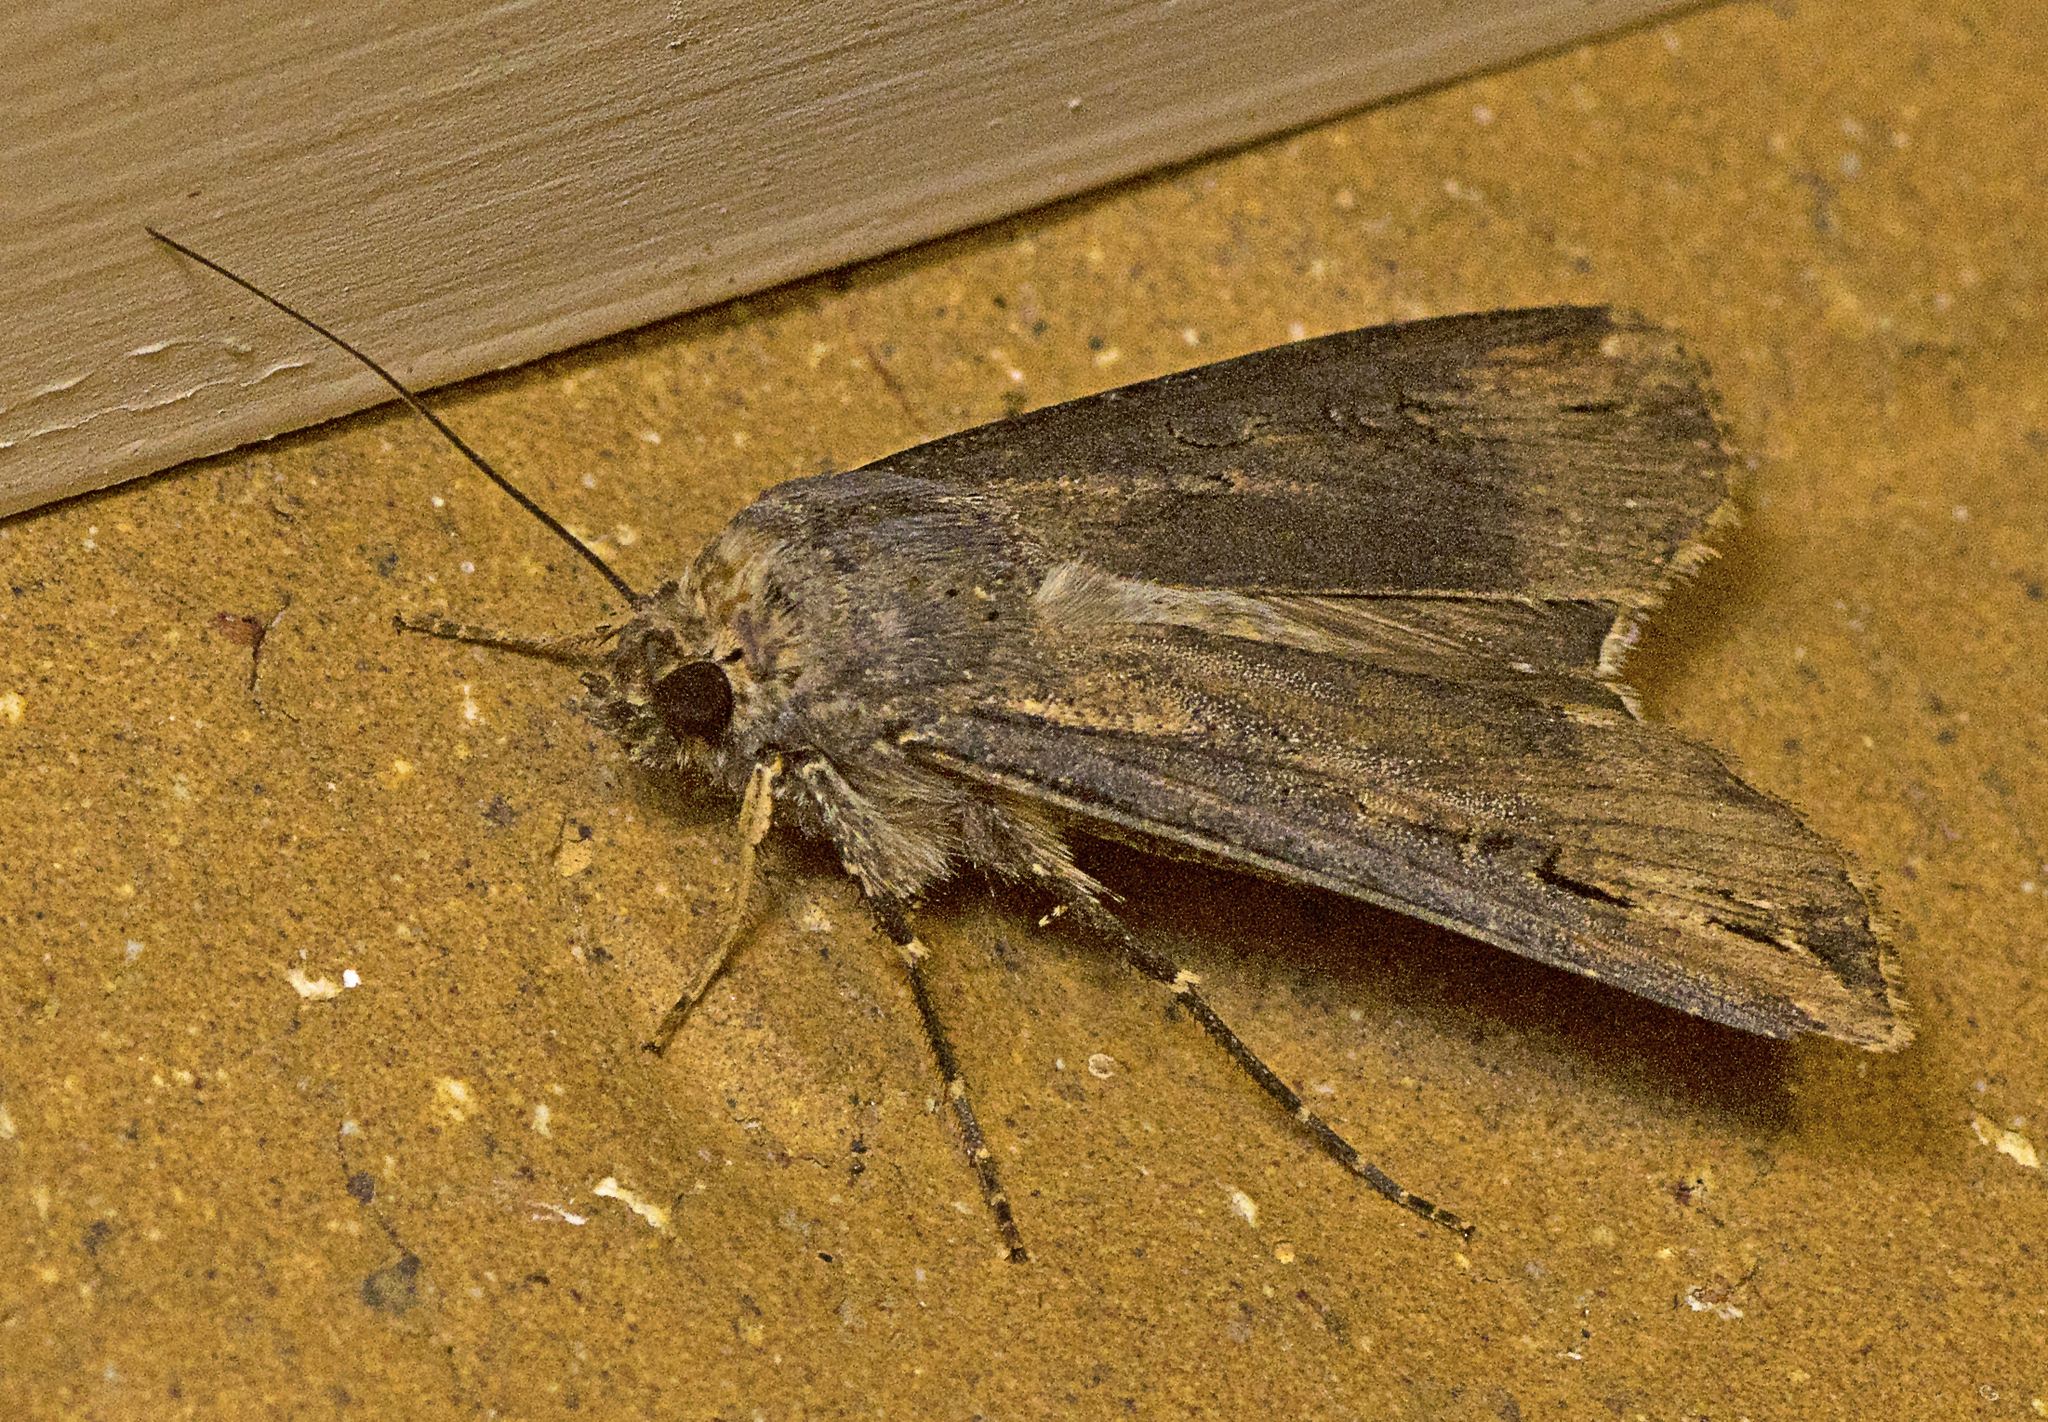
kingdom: Animalia
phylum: Arthropoda
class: Insecta
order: Lepidoptera
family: Noctuidae
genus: Agrotis
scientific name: Agrotis ipsilon
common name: Dark sword-grass
